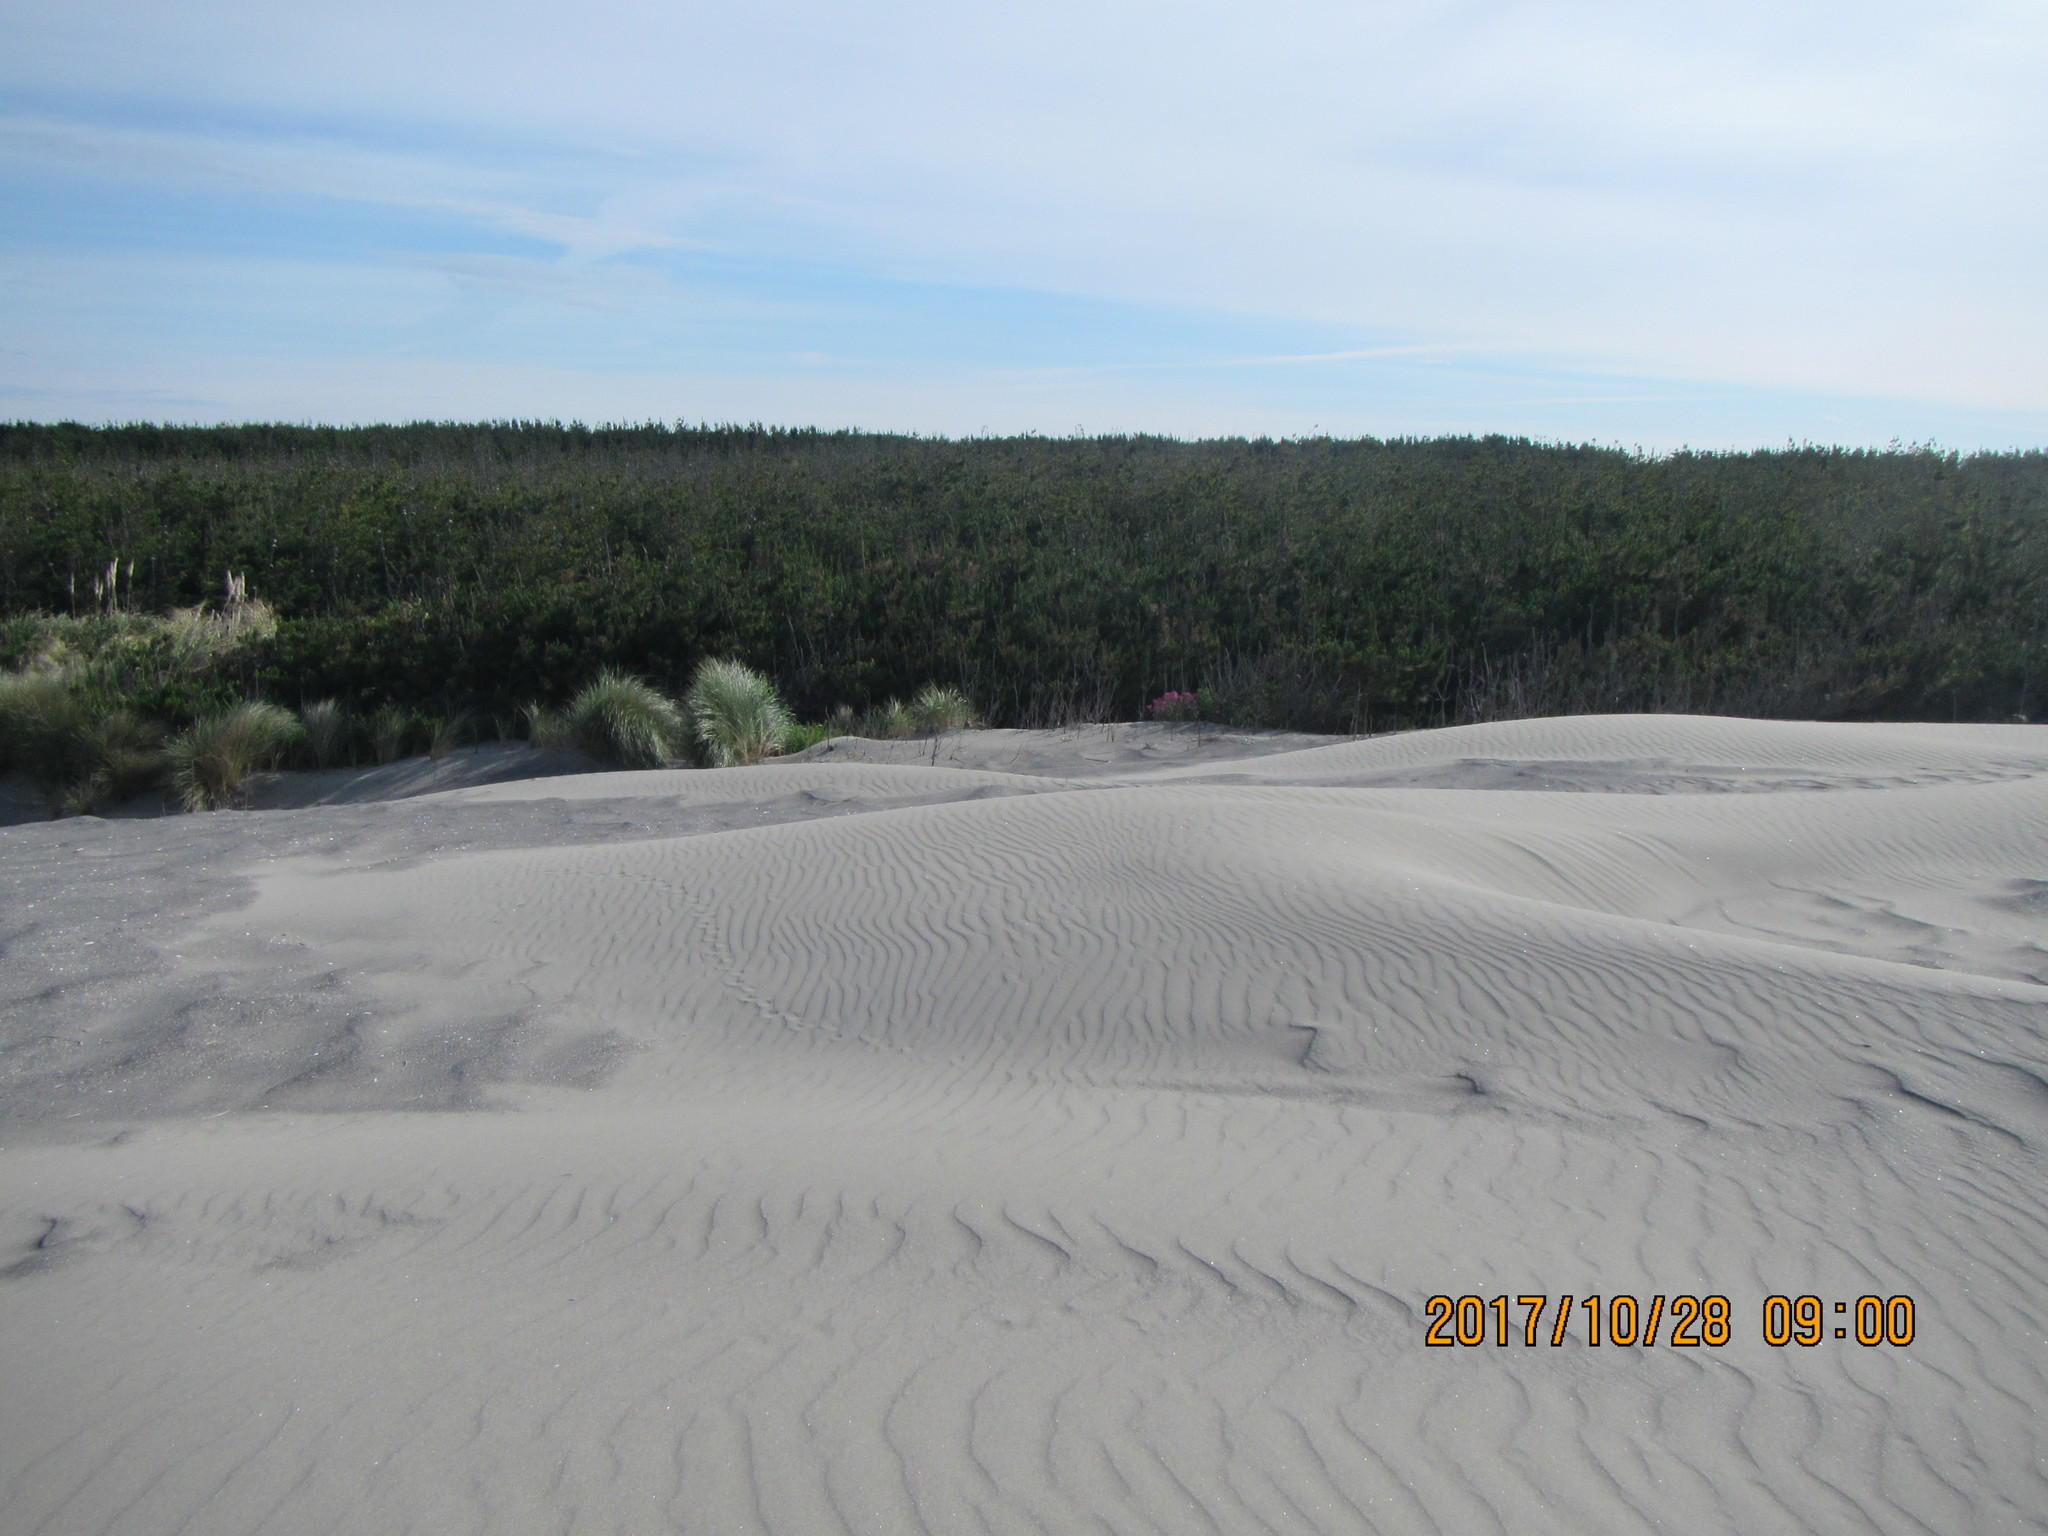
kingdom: Plantae
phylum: Tracheophyta
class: Pinopsida
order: Pinales
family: Pinaceae
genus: Pinus
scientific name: Pinus radiata
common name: Monterey pine
